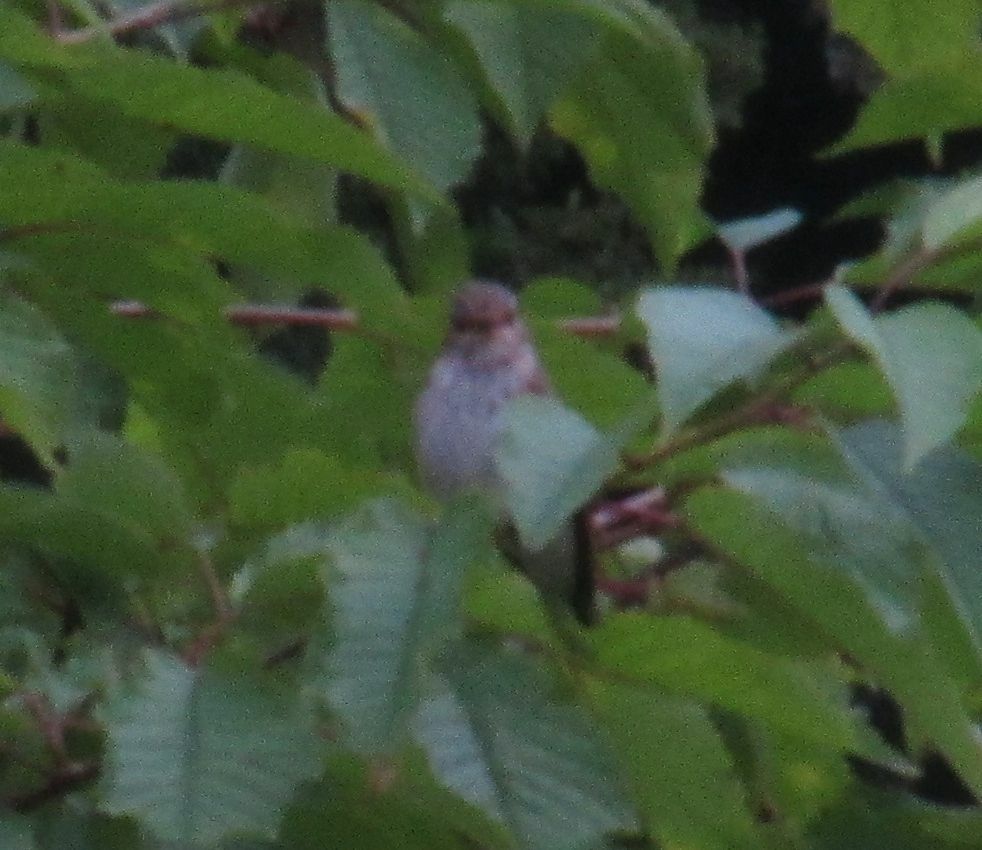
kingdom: Animalia
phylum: Chordata
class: Aves
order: Passeriformes
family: Muscicapidae
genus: Muscicapa
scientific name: Muscicapa striata
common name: Spotted flycatcher
